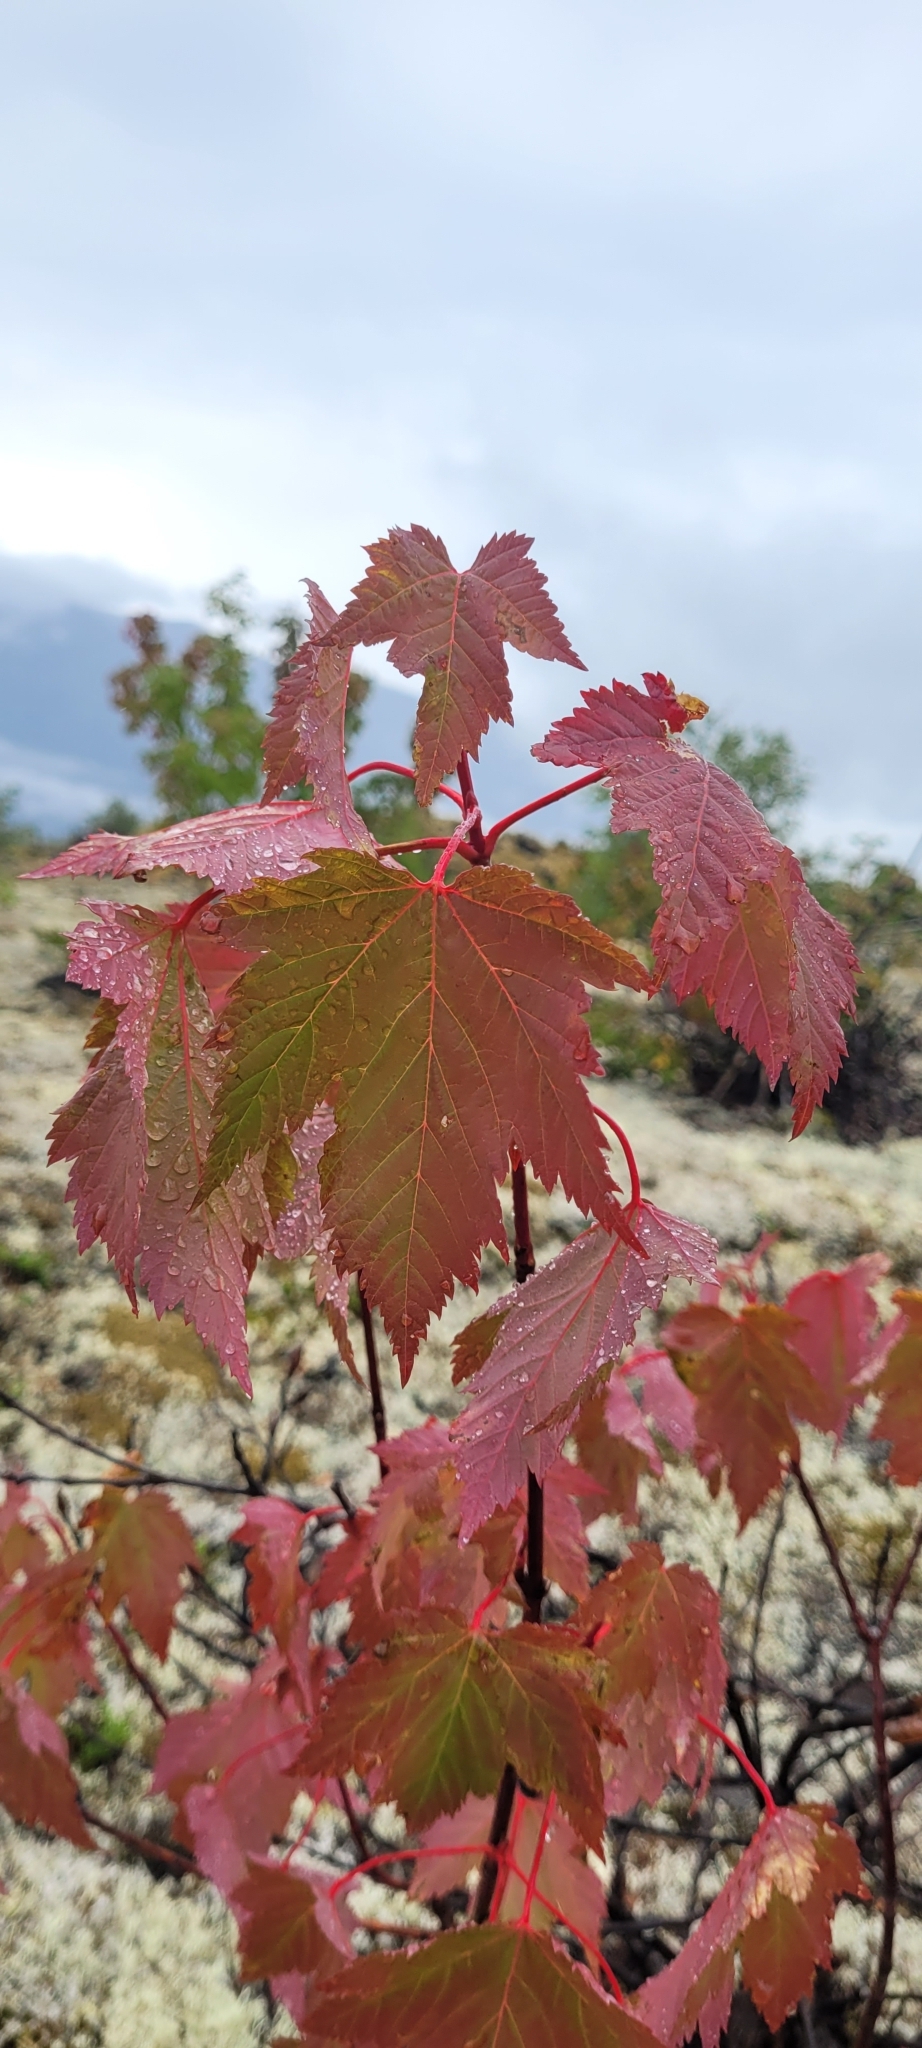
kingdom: Plantae
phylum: Tracheophyta
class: Magnoliopsida
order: Sapindales
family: Sapindaceae
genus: Acer
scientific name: Acer glabrum
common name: Rocky mountain maple
